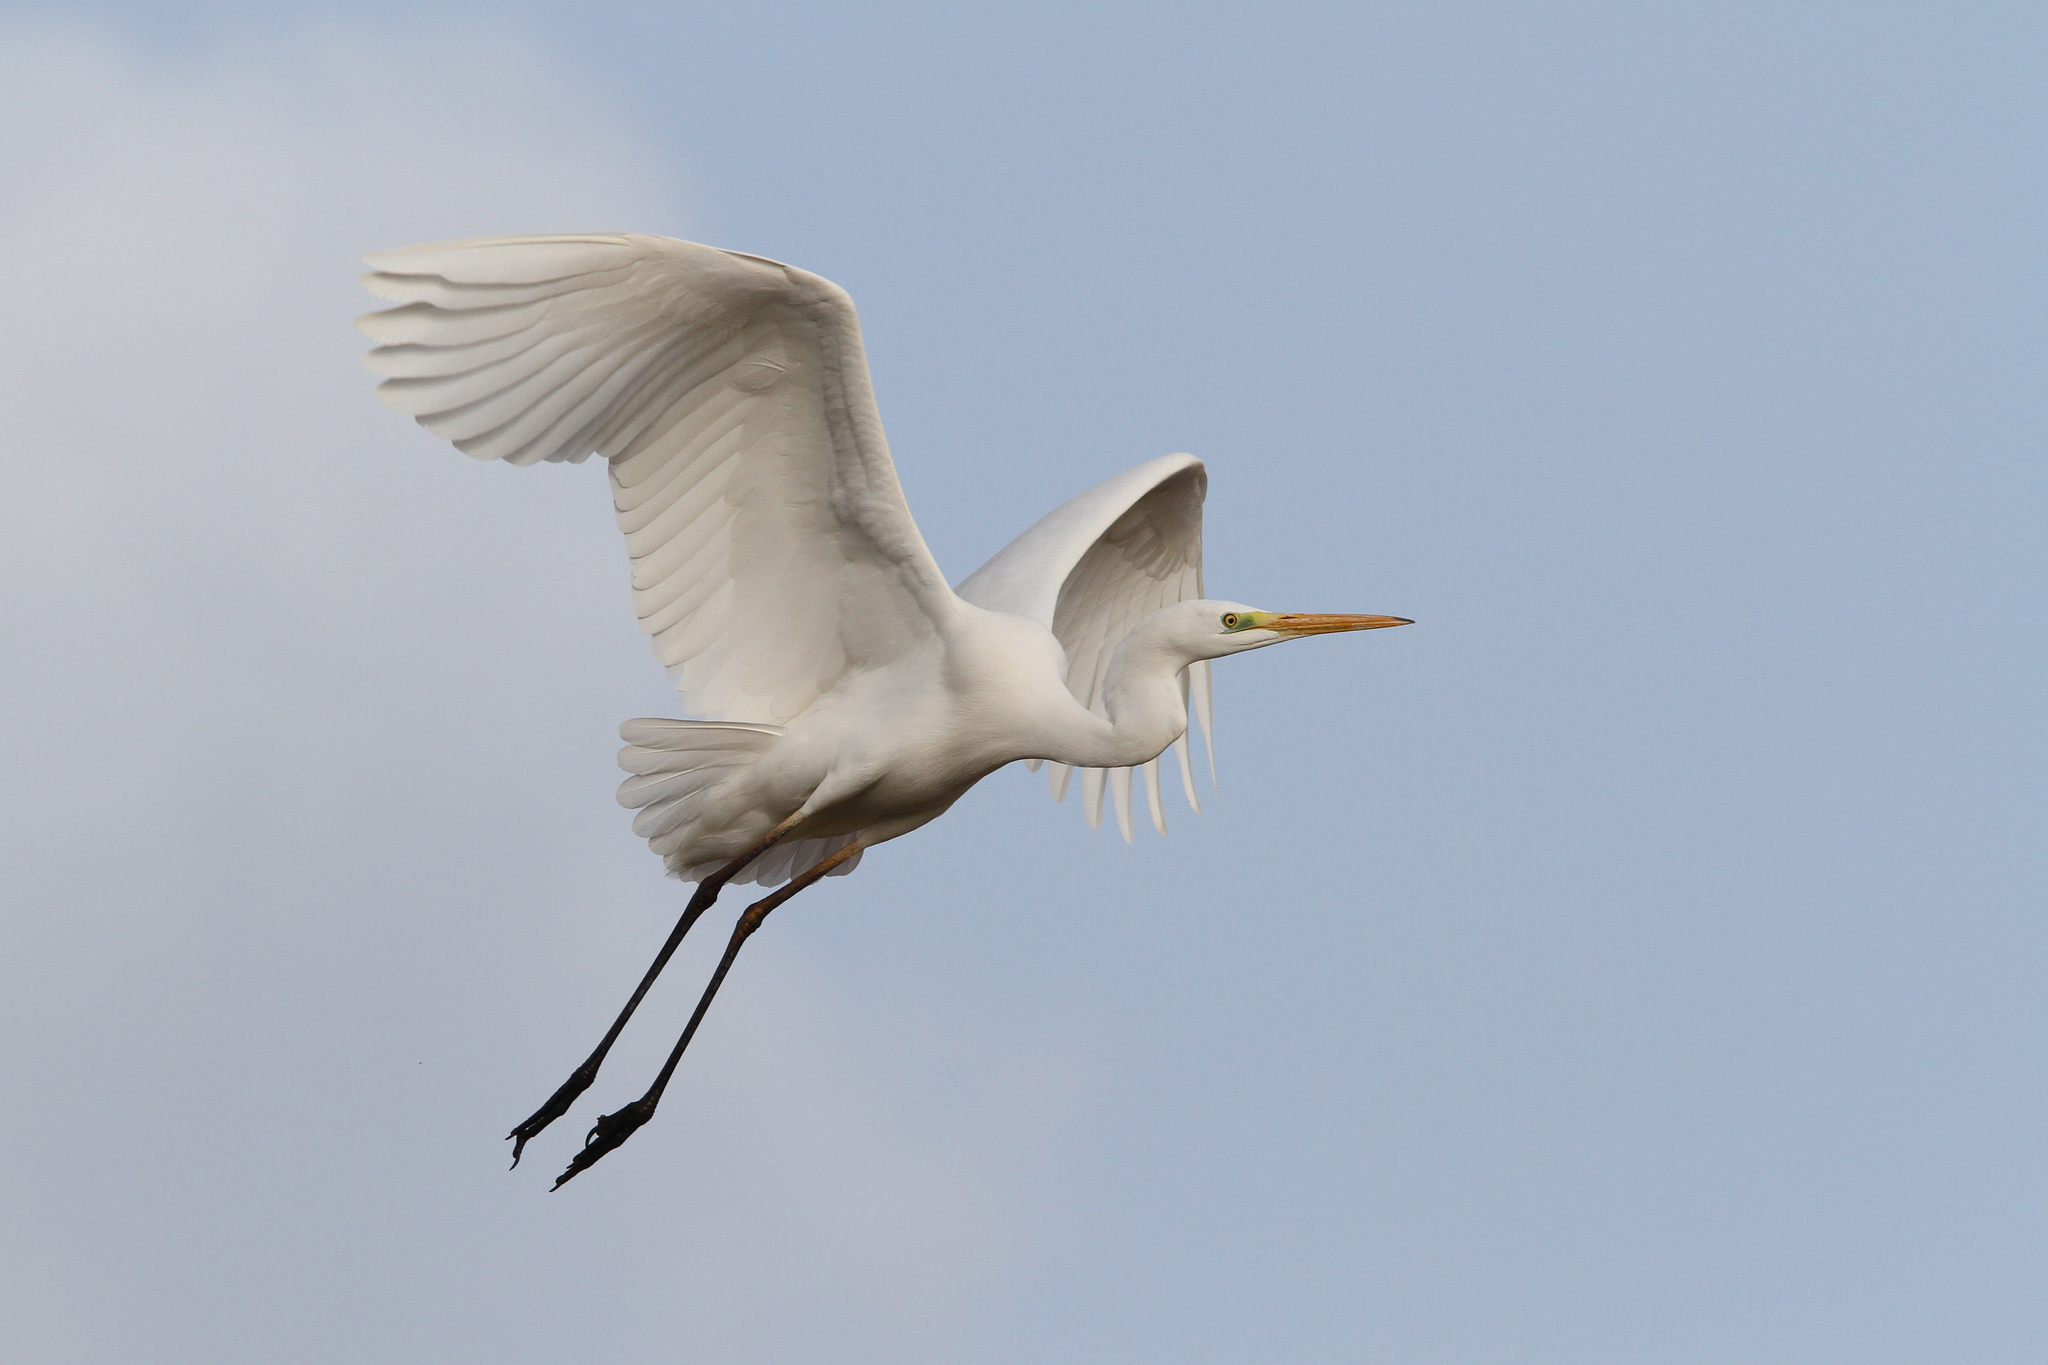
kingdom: Animalia
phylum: Chordata
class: Aves
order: Pelecaniformes
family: Ardeidae
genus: Ardea
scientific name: Ardea alba
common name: Great egret
